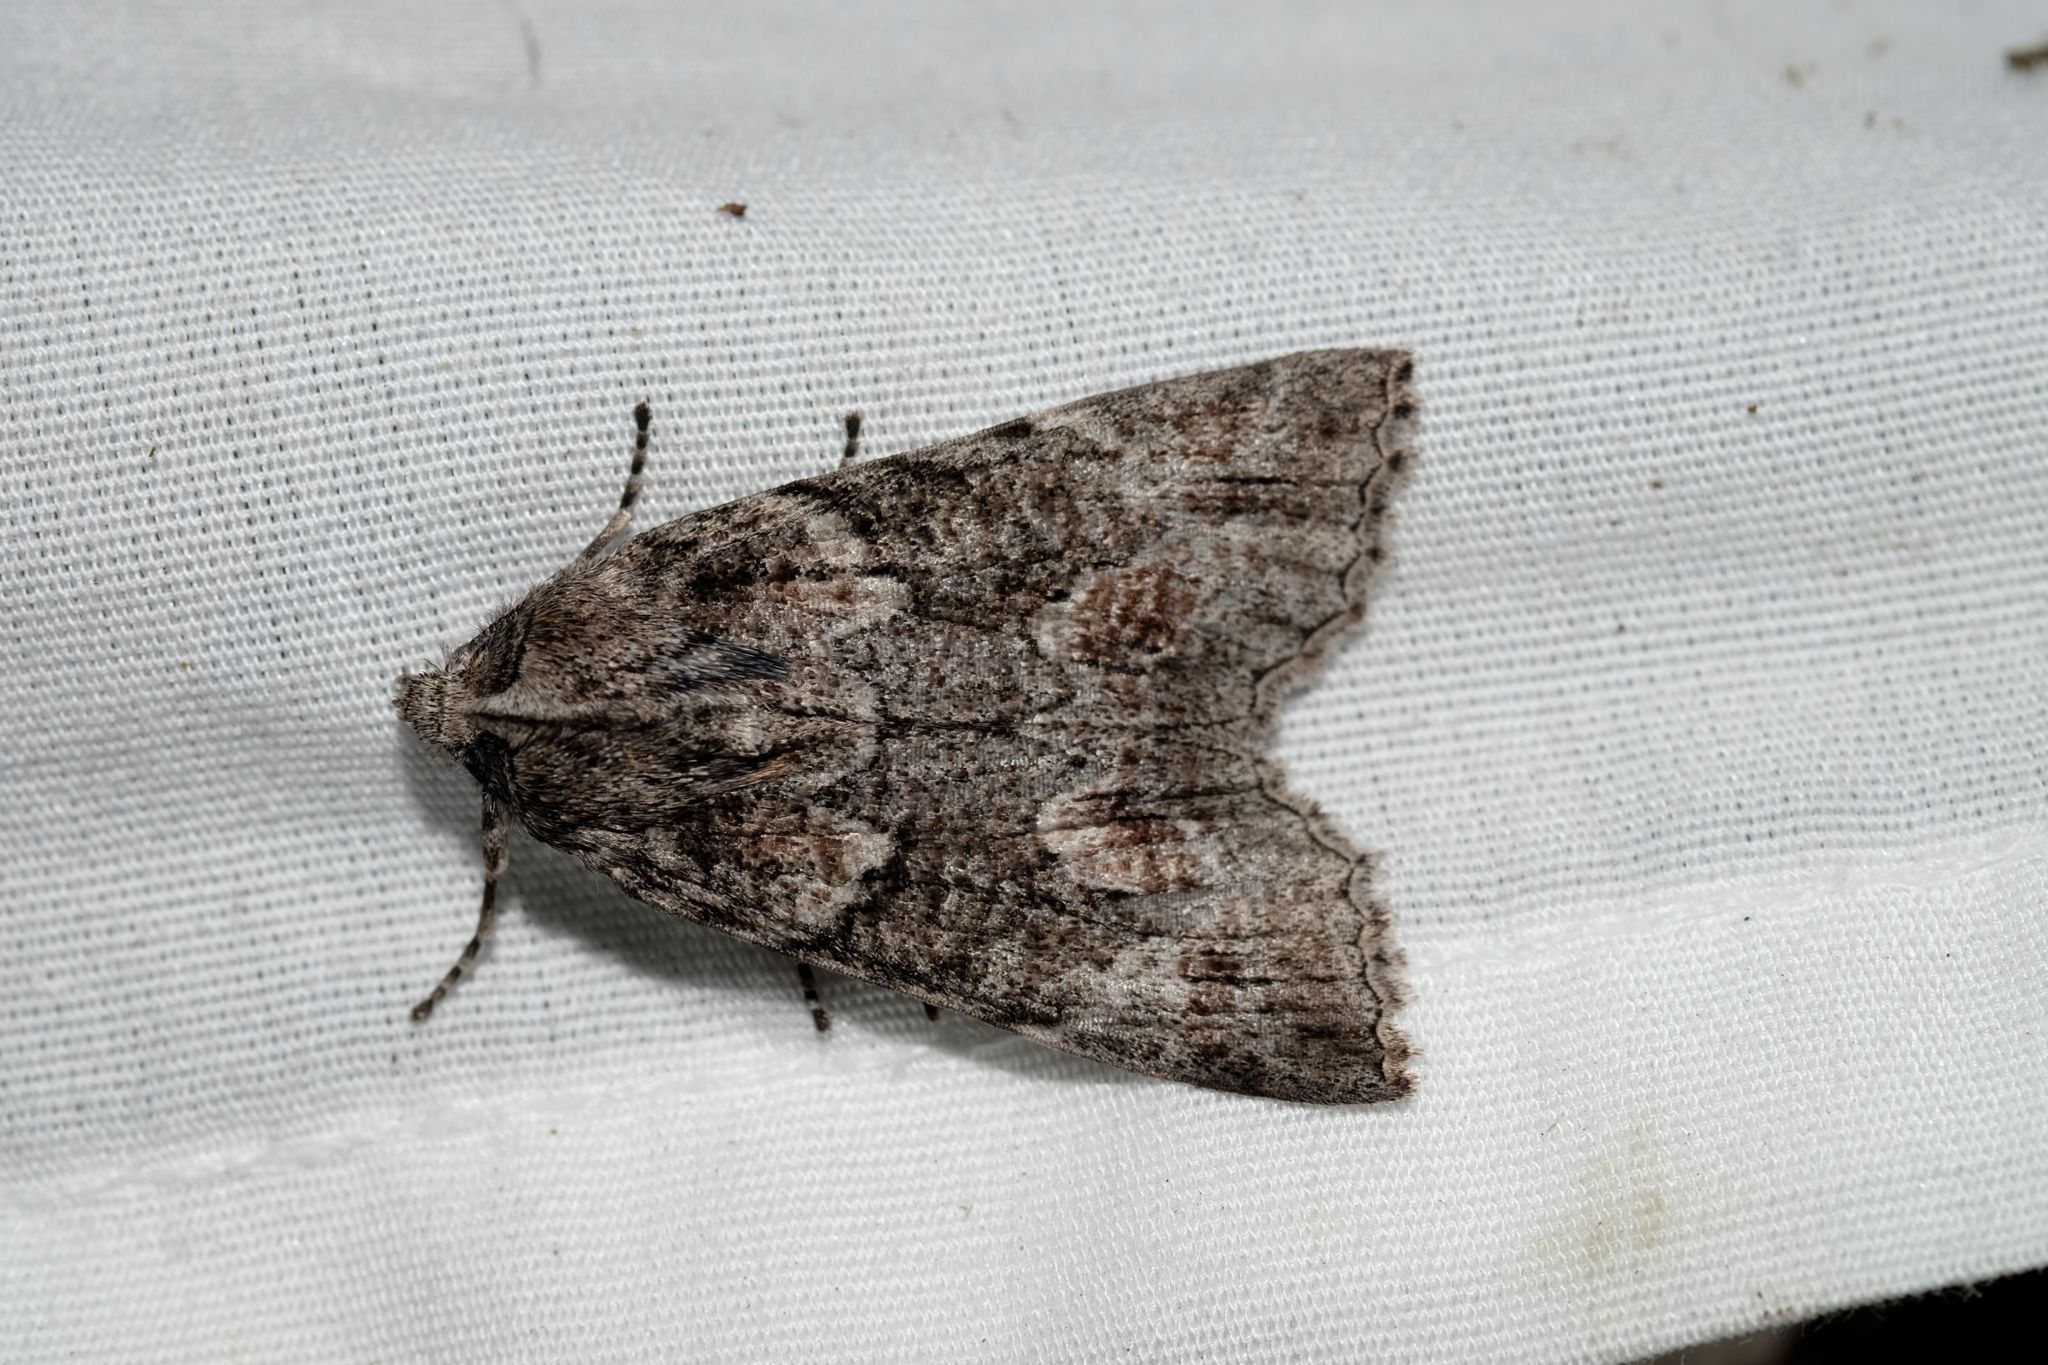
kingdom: Animalia
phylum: Arthropoda
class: Insecta
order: Lepidoptera
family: Geometridae
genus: Nisista
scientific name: Nisista galearia
